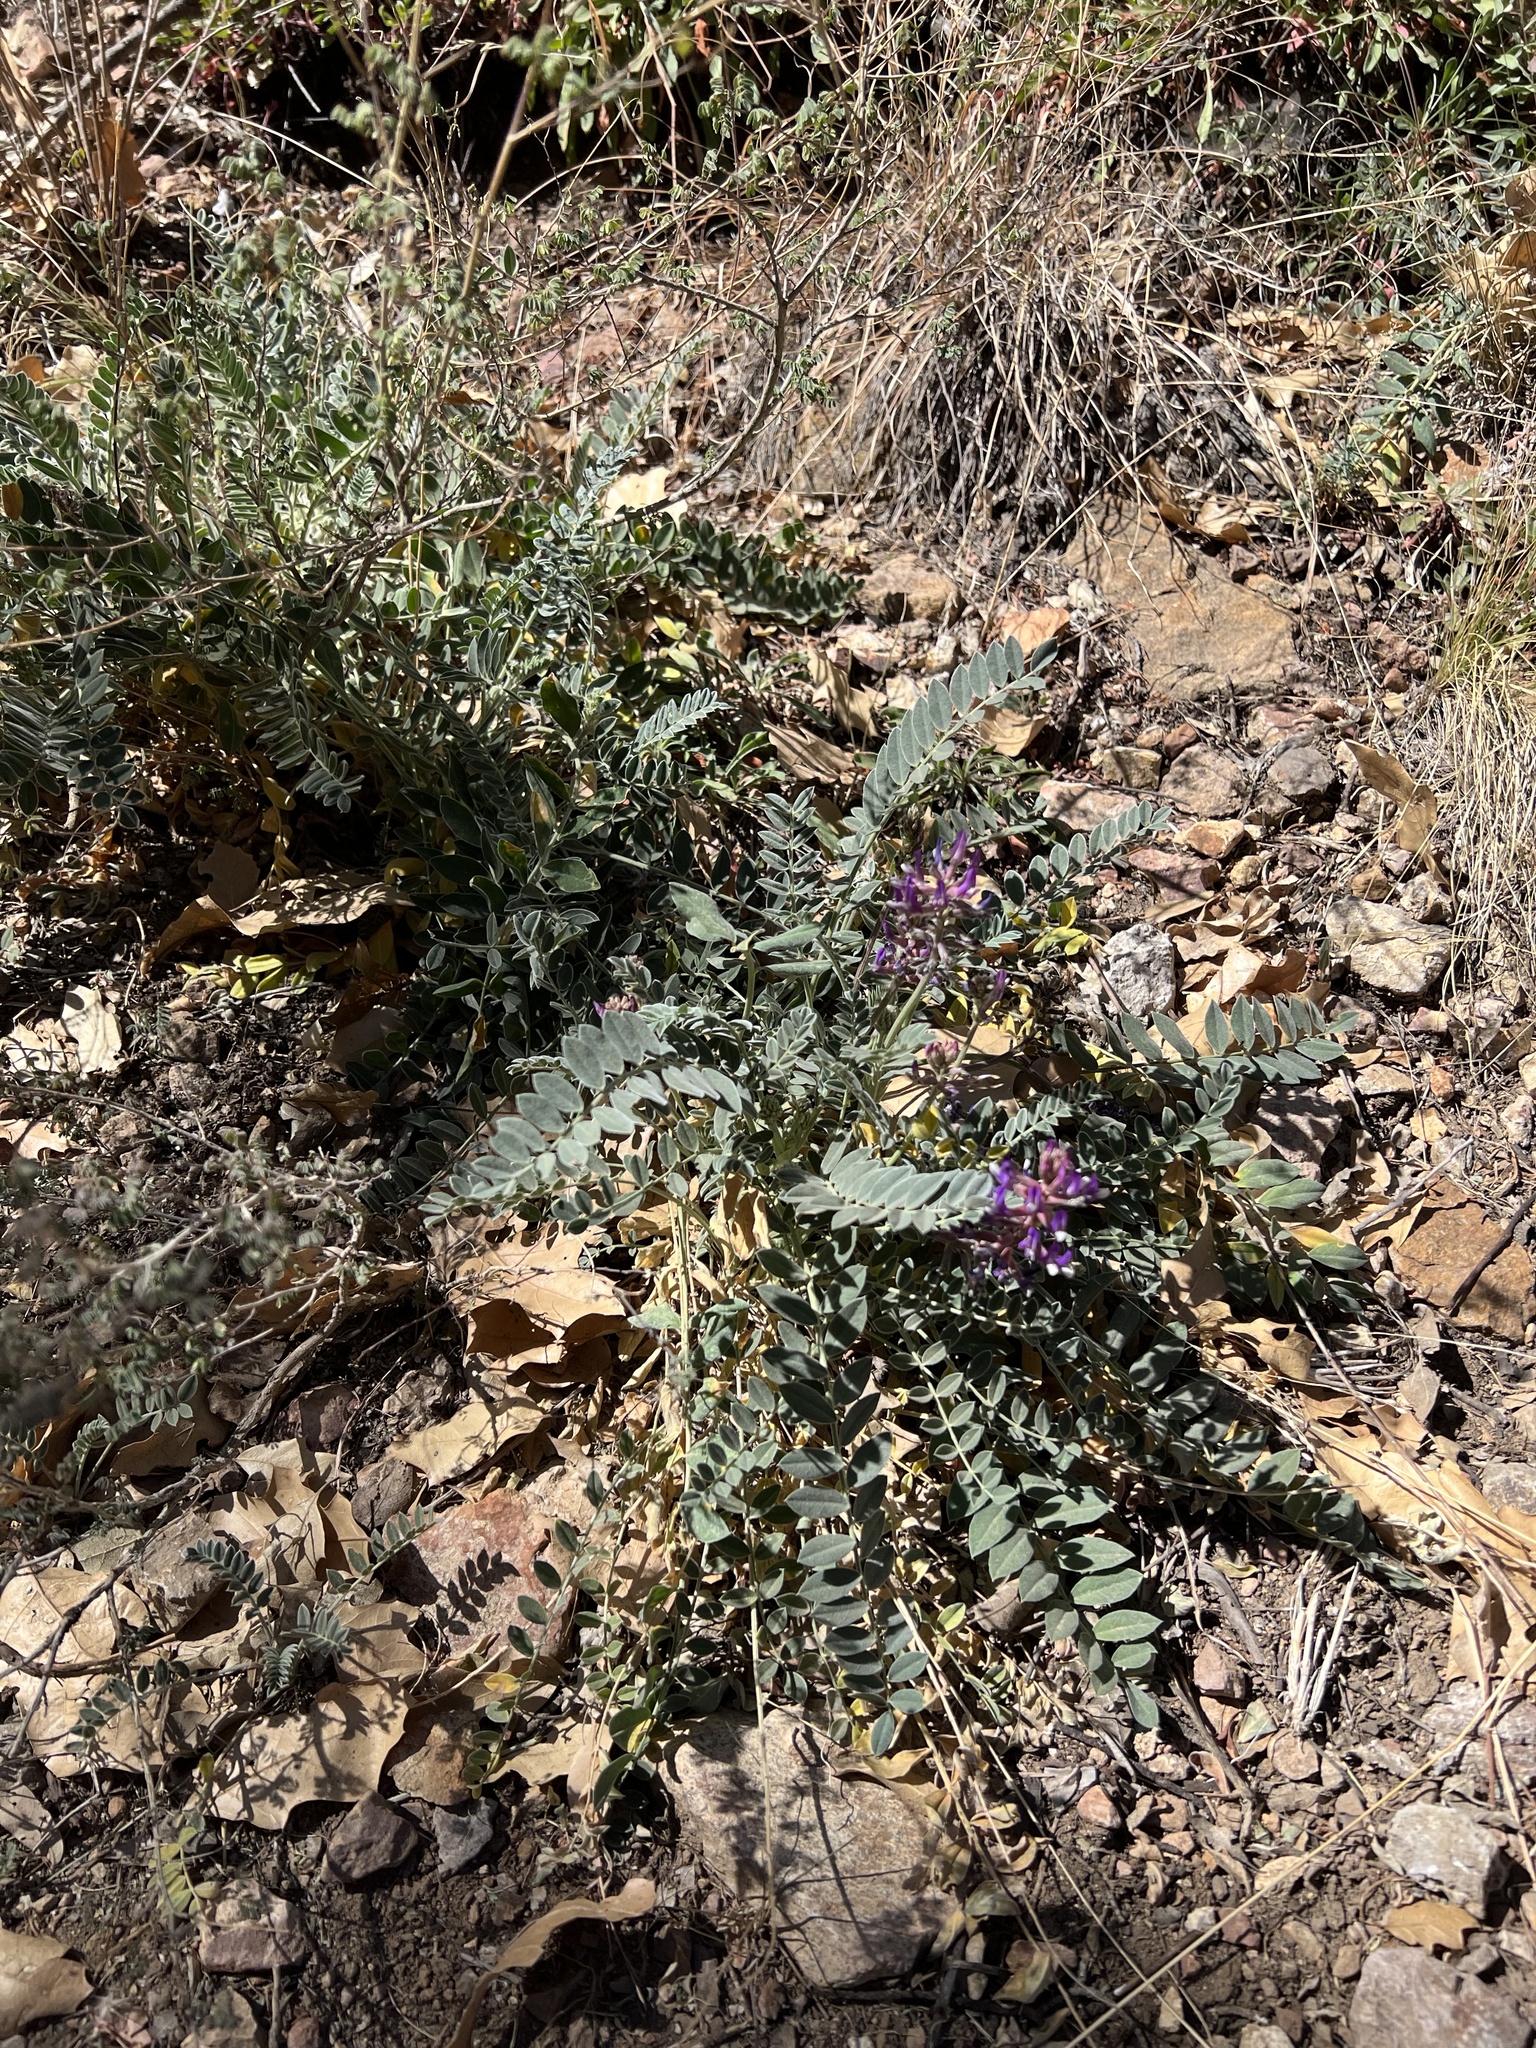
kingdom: Plantae
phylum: Tracheophyta
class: Magnoliopsida
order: Fabales
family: Fabaceae
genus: Astragalus
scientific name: Astragalus mollissimus
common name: Woolly locoweed
